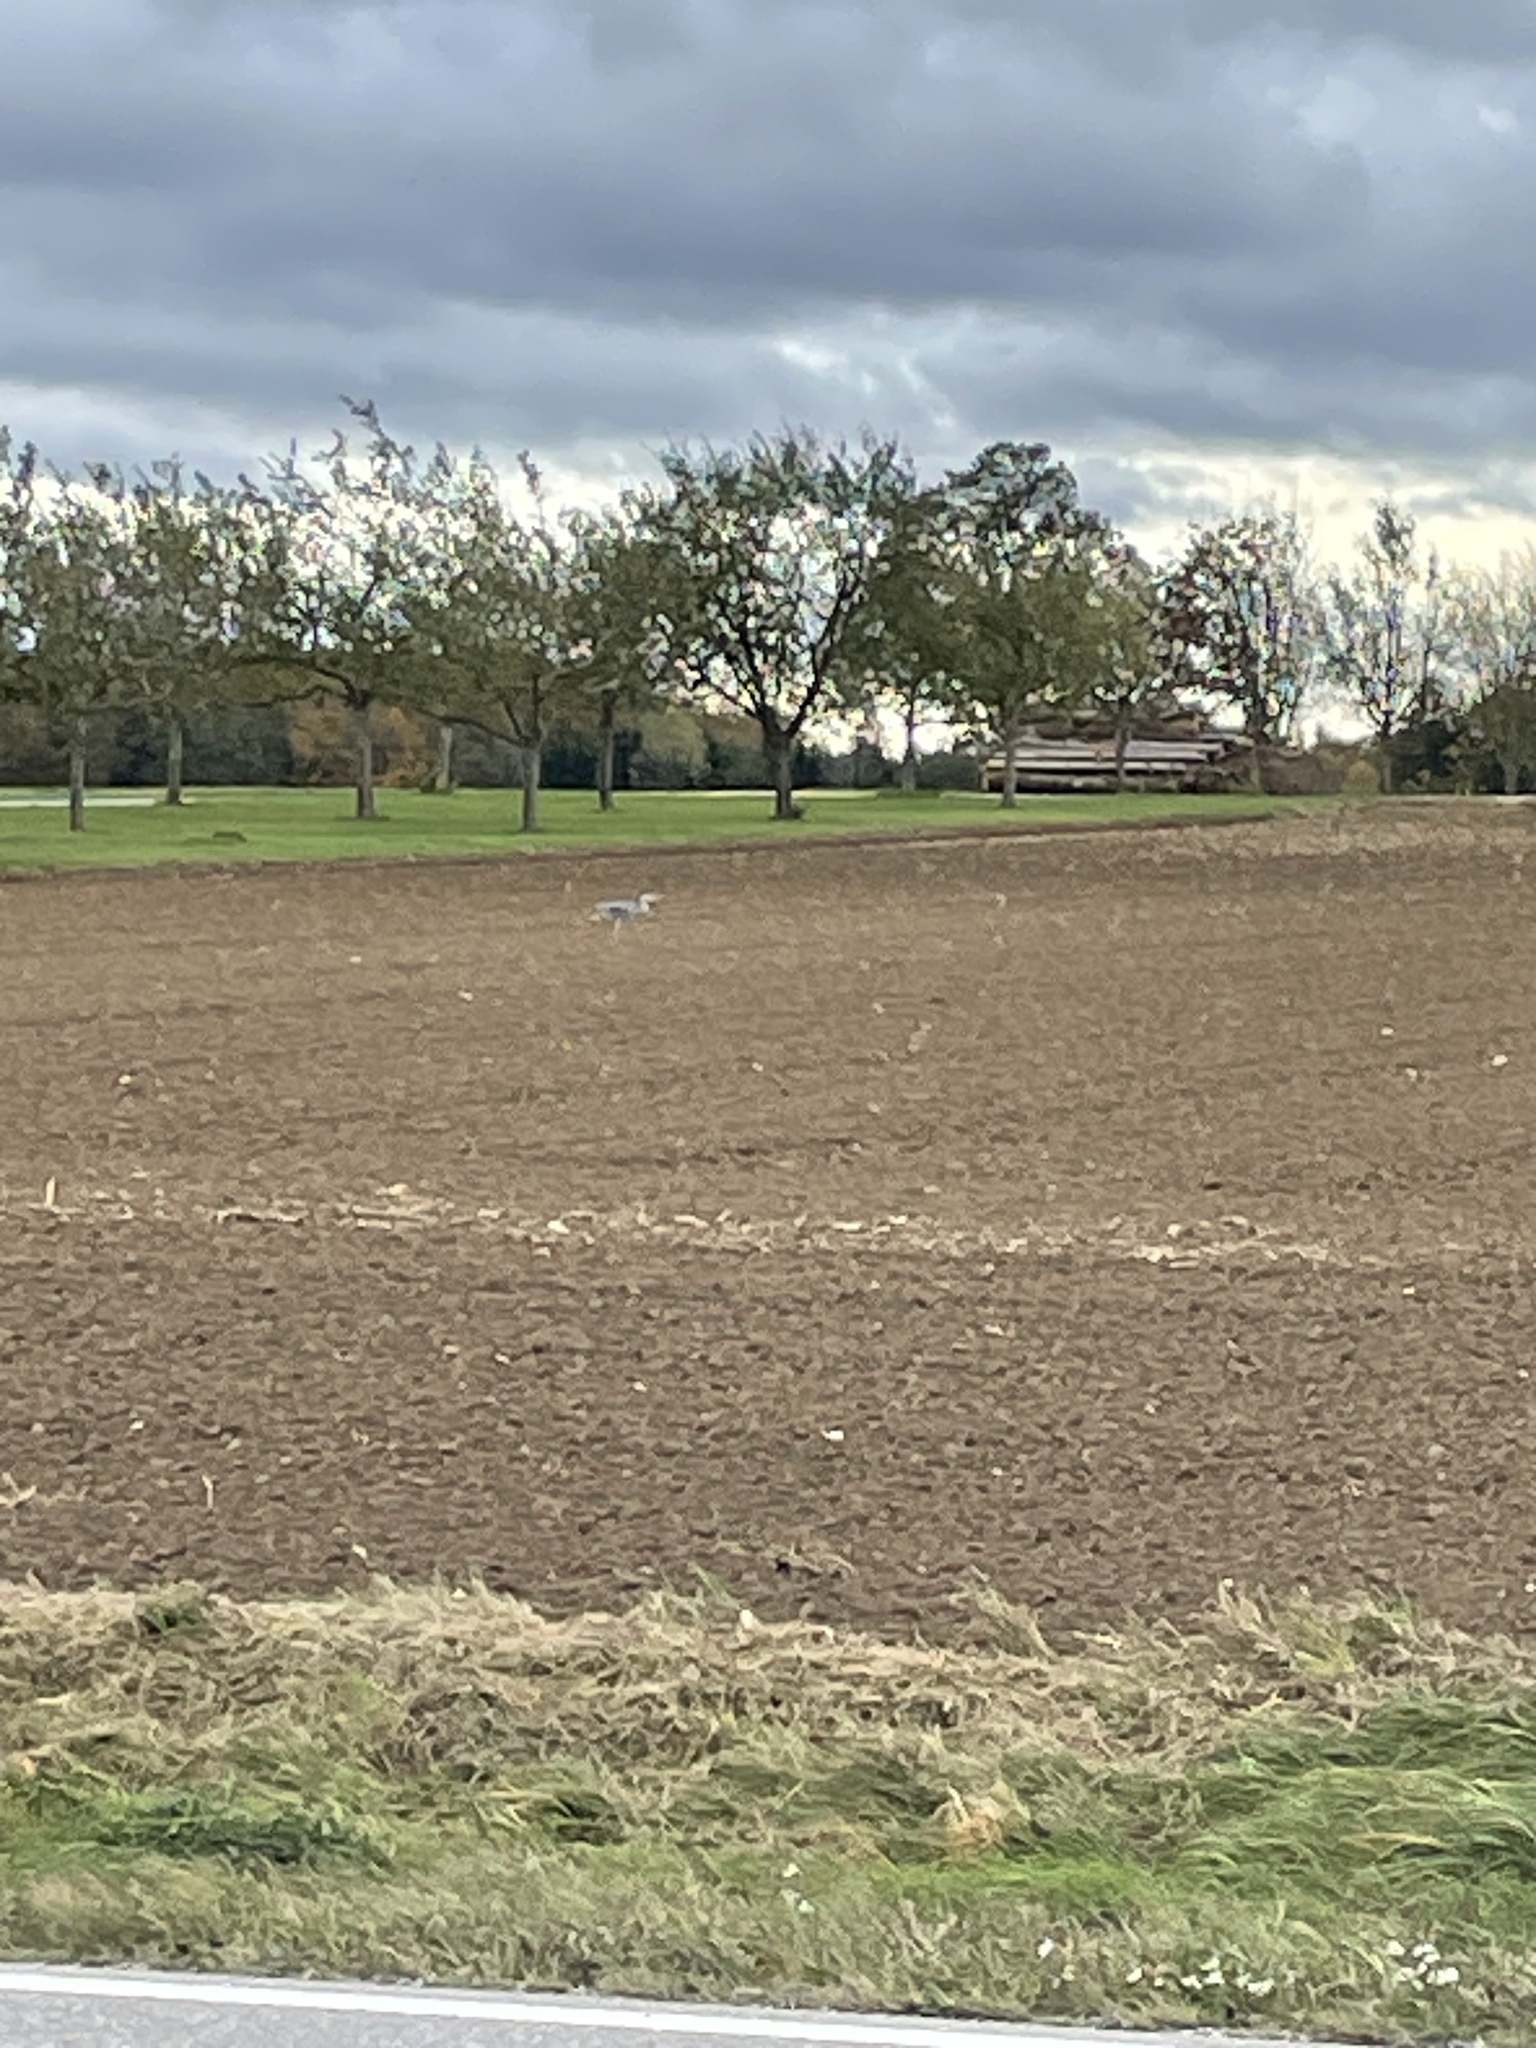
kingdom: Animalia
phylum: Chordata
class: Aves
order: Pelecaniformes
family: Ardeidae
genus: Ardea
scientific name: Ardea cinerea
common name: Grey heron
